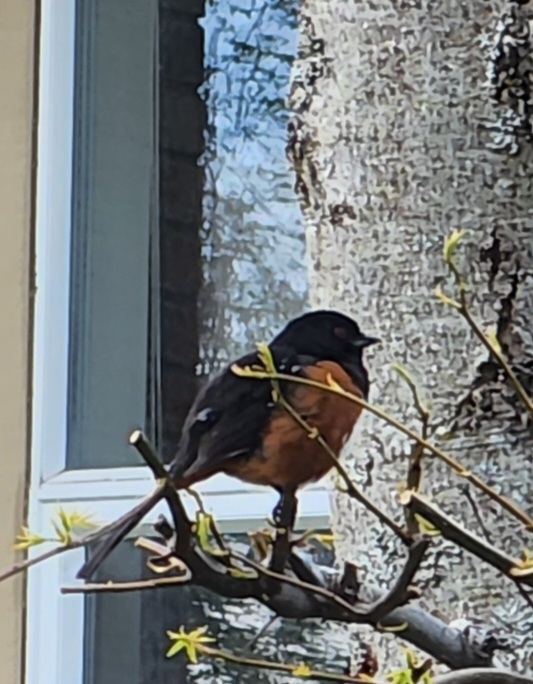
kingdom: Animalia
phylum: Chordata
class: Aves
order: Passeriformes
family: Passerellidae
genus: Pipilo
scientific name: Pipilo maculatus
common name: Spotted towhee
